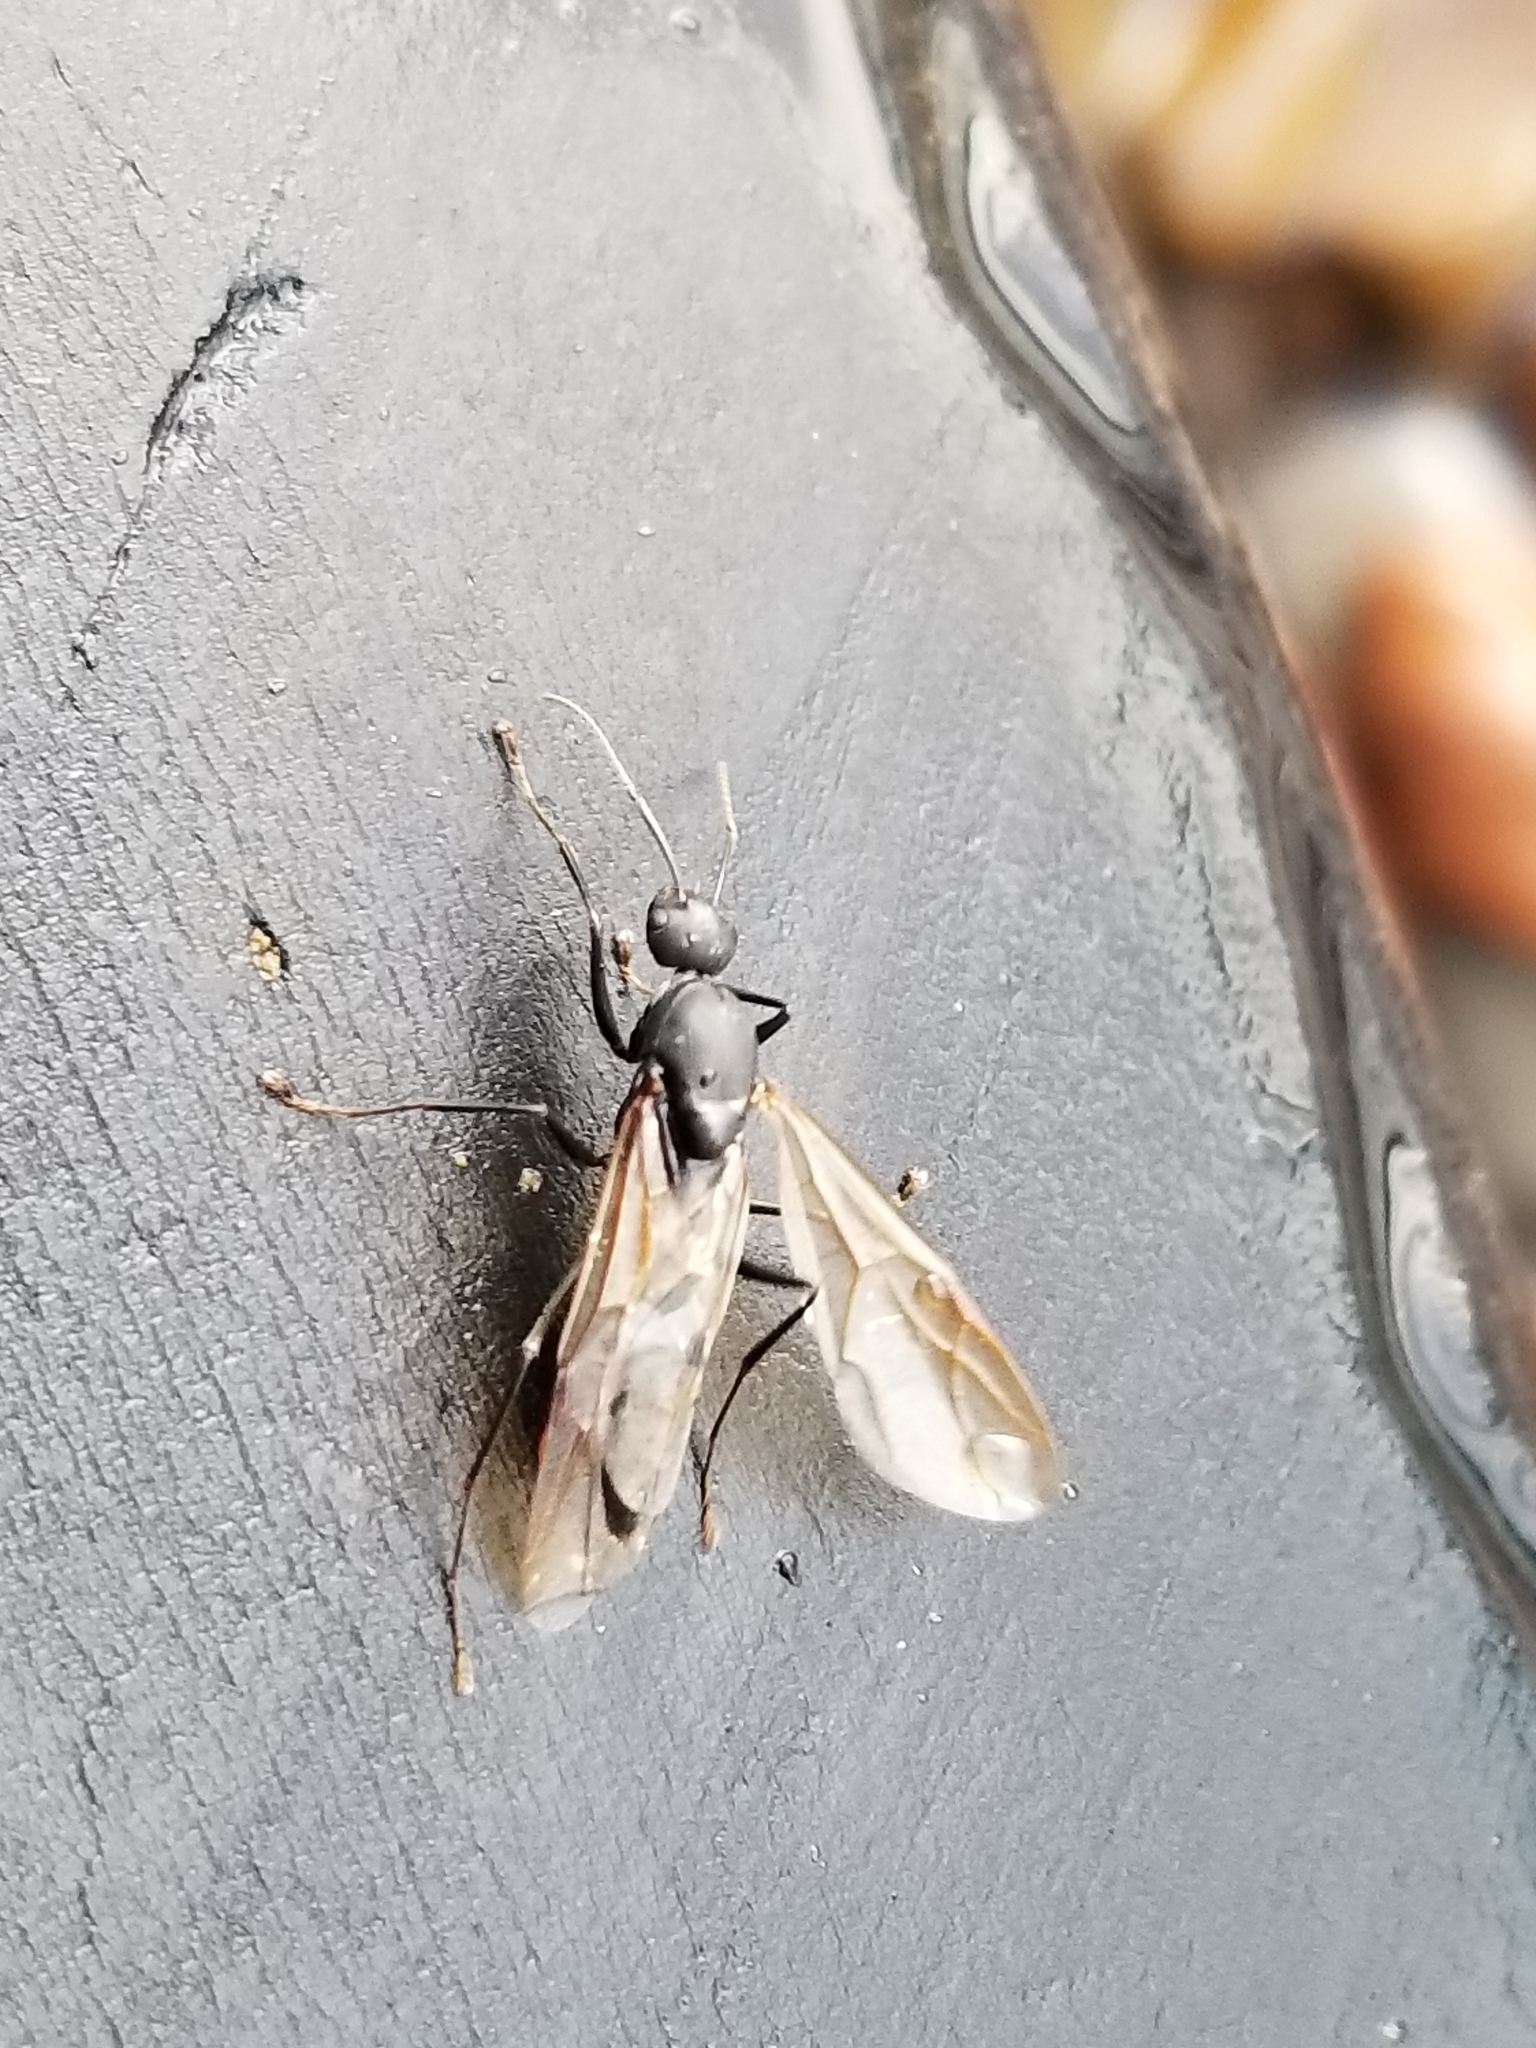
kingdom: Animalia
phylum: Arthropoda
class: Insecta
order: Hymenoptera
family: Formicidae
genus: Camponotus
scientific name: Camponotus modoc
